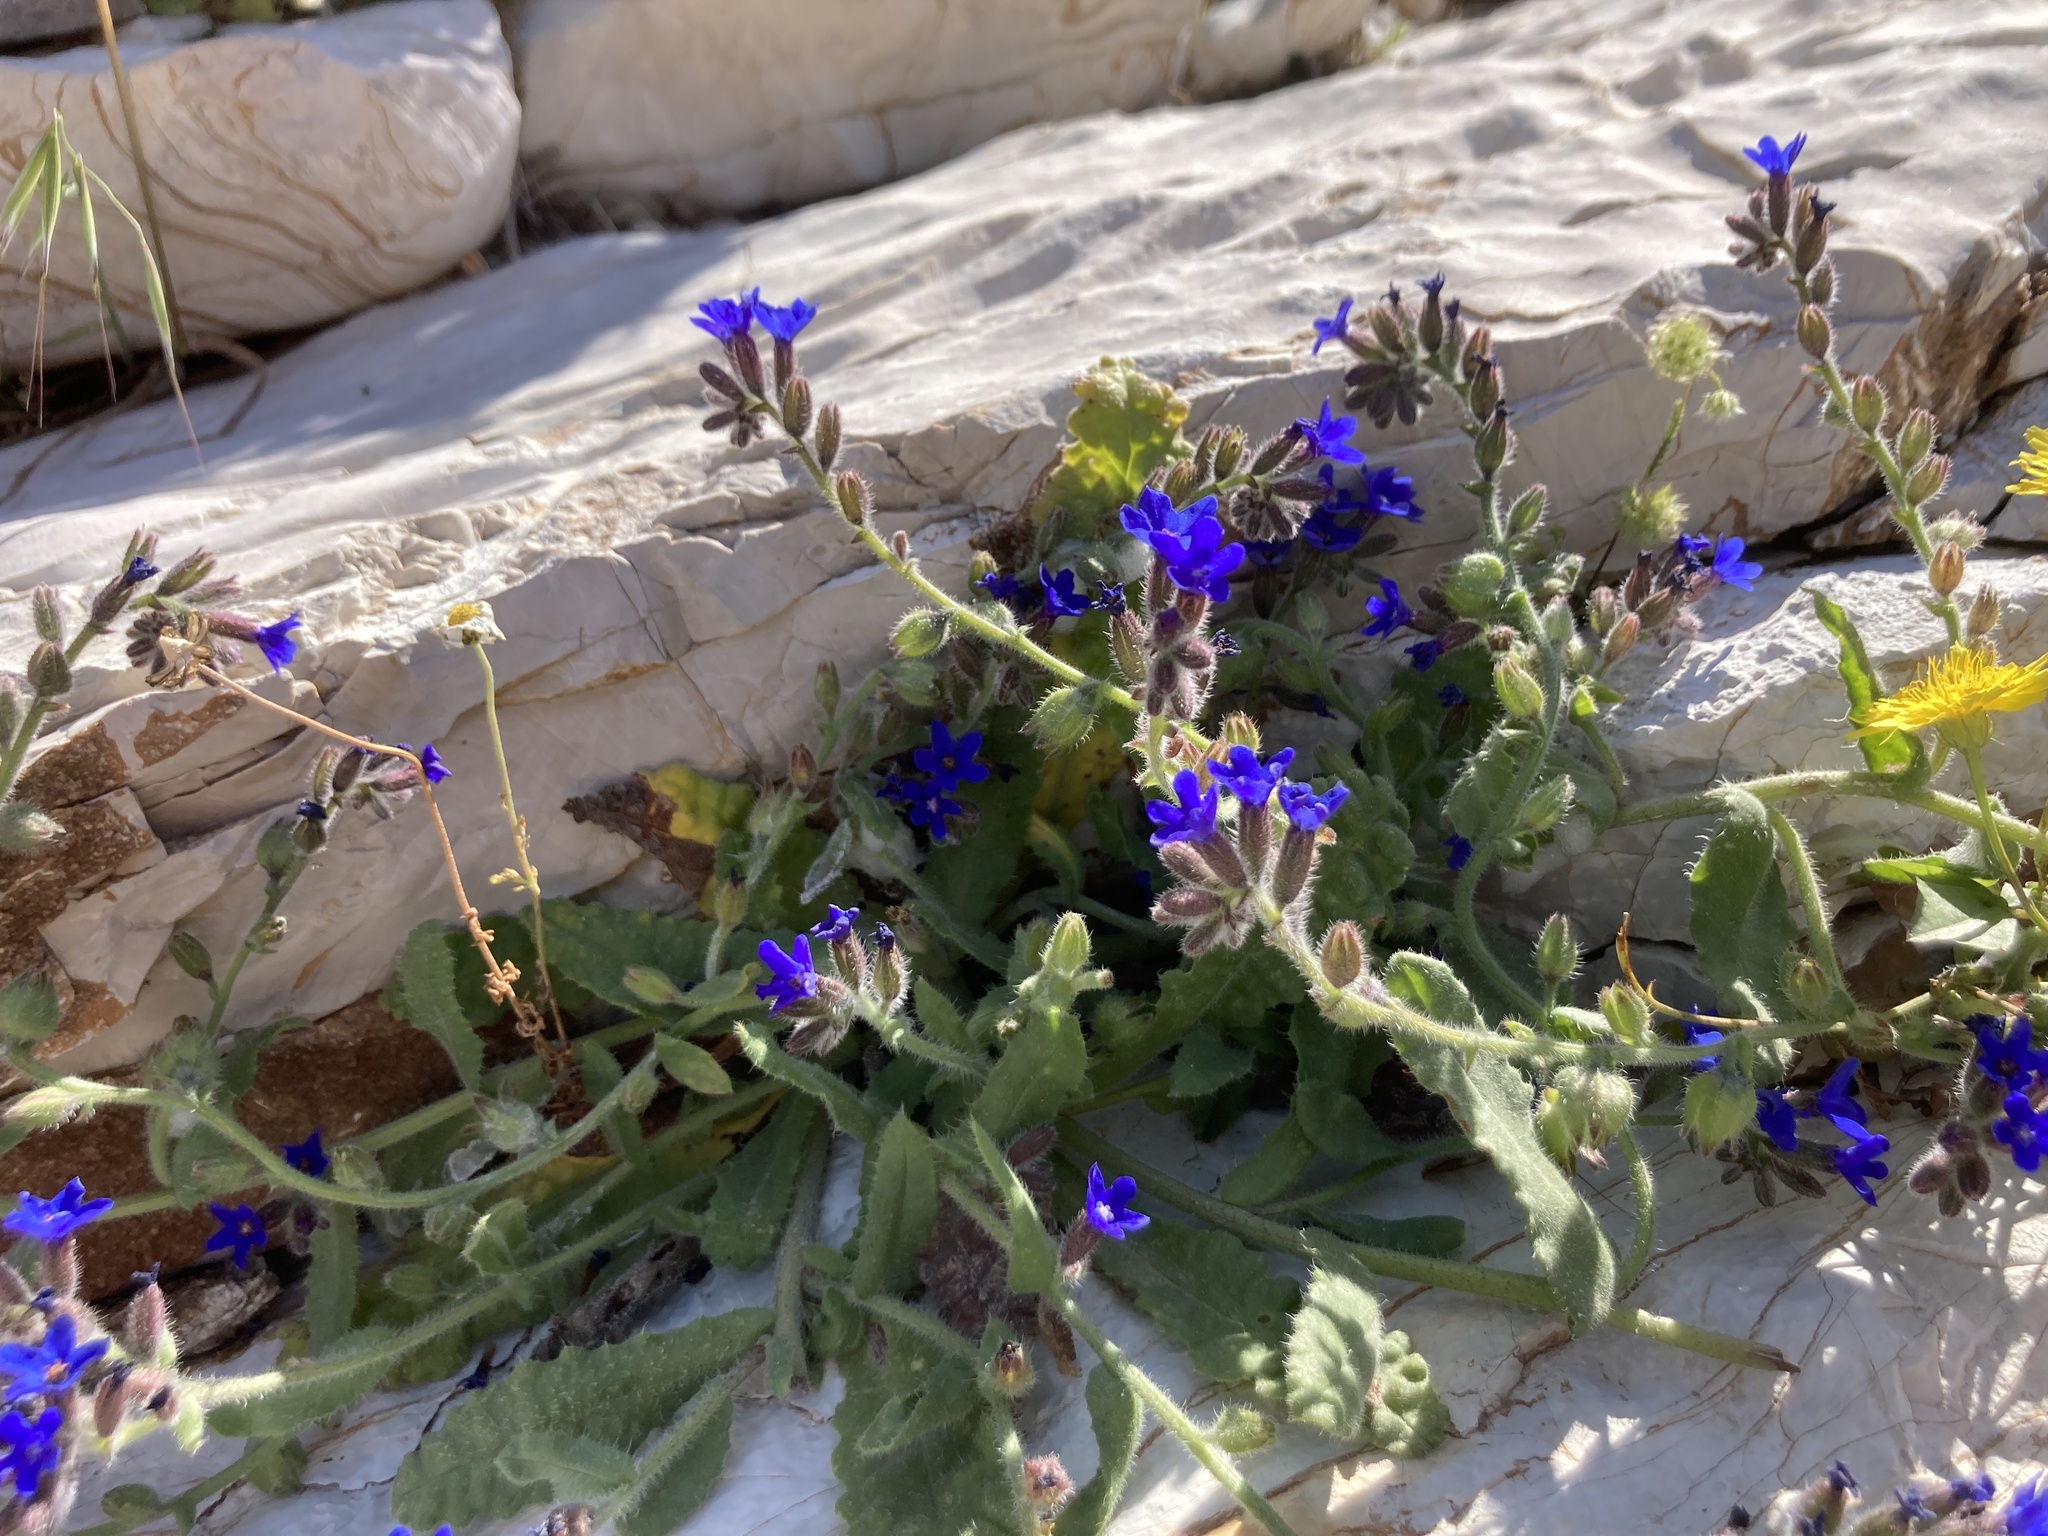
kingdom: Plantae
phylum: Tracheophyta
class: Magnoliopsida
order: Boraginales
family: Boraginaceae
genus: Anchusa
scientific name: Anchusa hybrida
